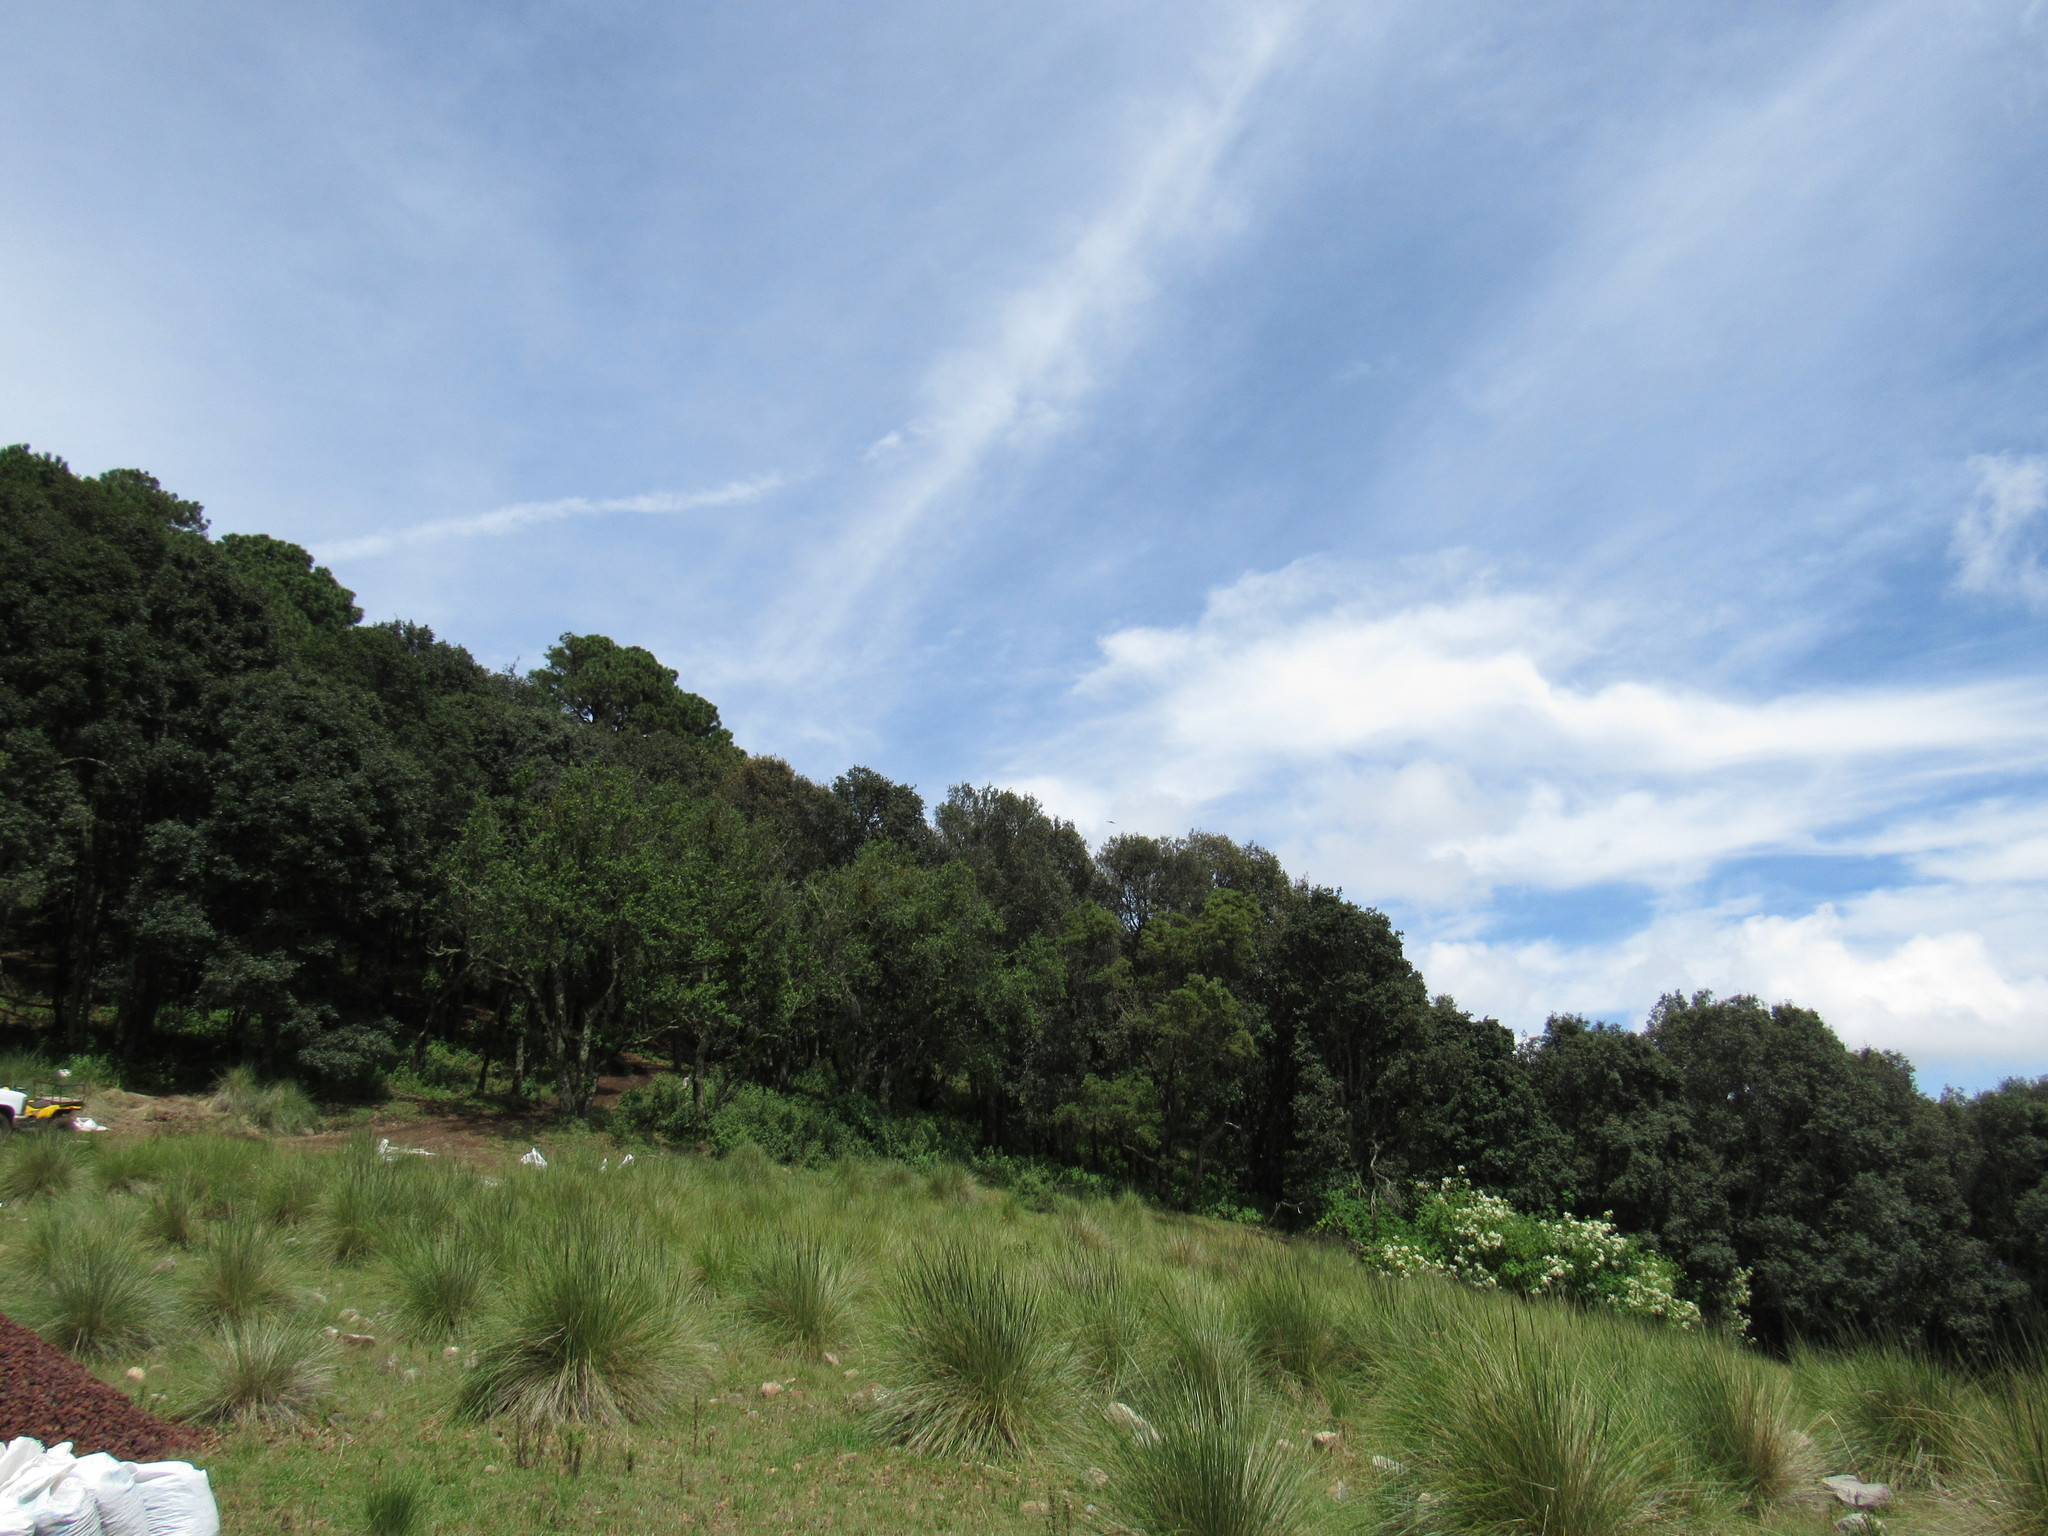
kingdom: Animalia
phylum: Chordata
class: Aves
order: Passeriformes
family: Corvidae
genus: Corvus
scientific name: Corvus corax
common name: Common raven
